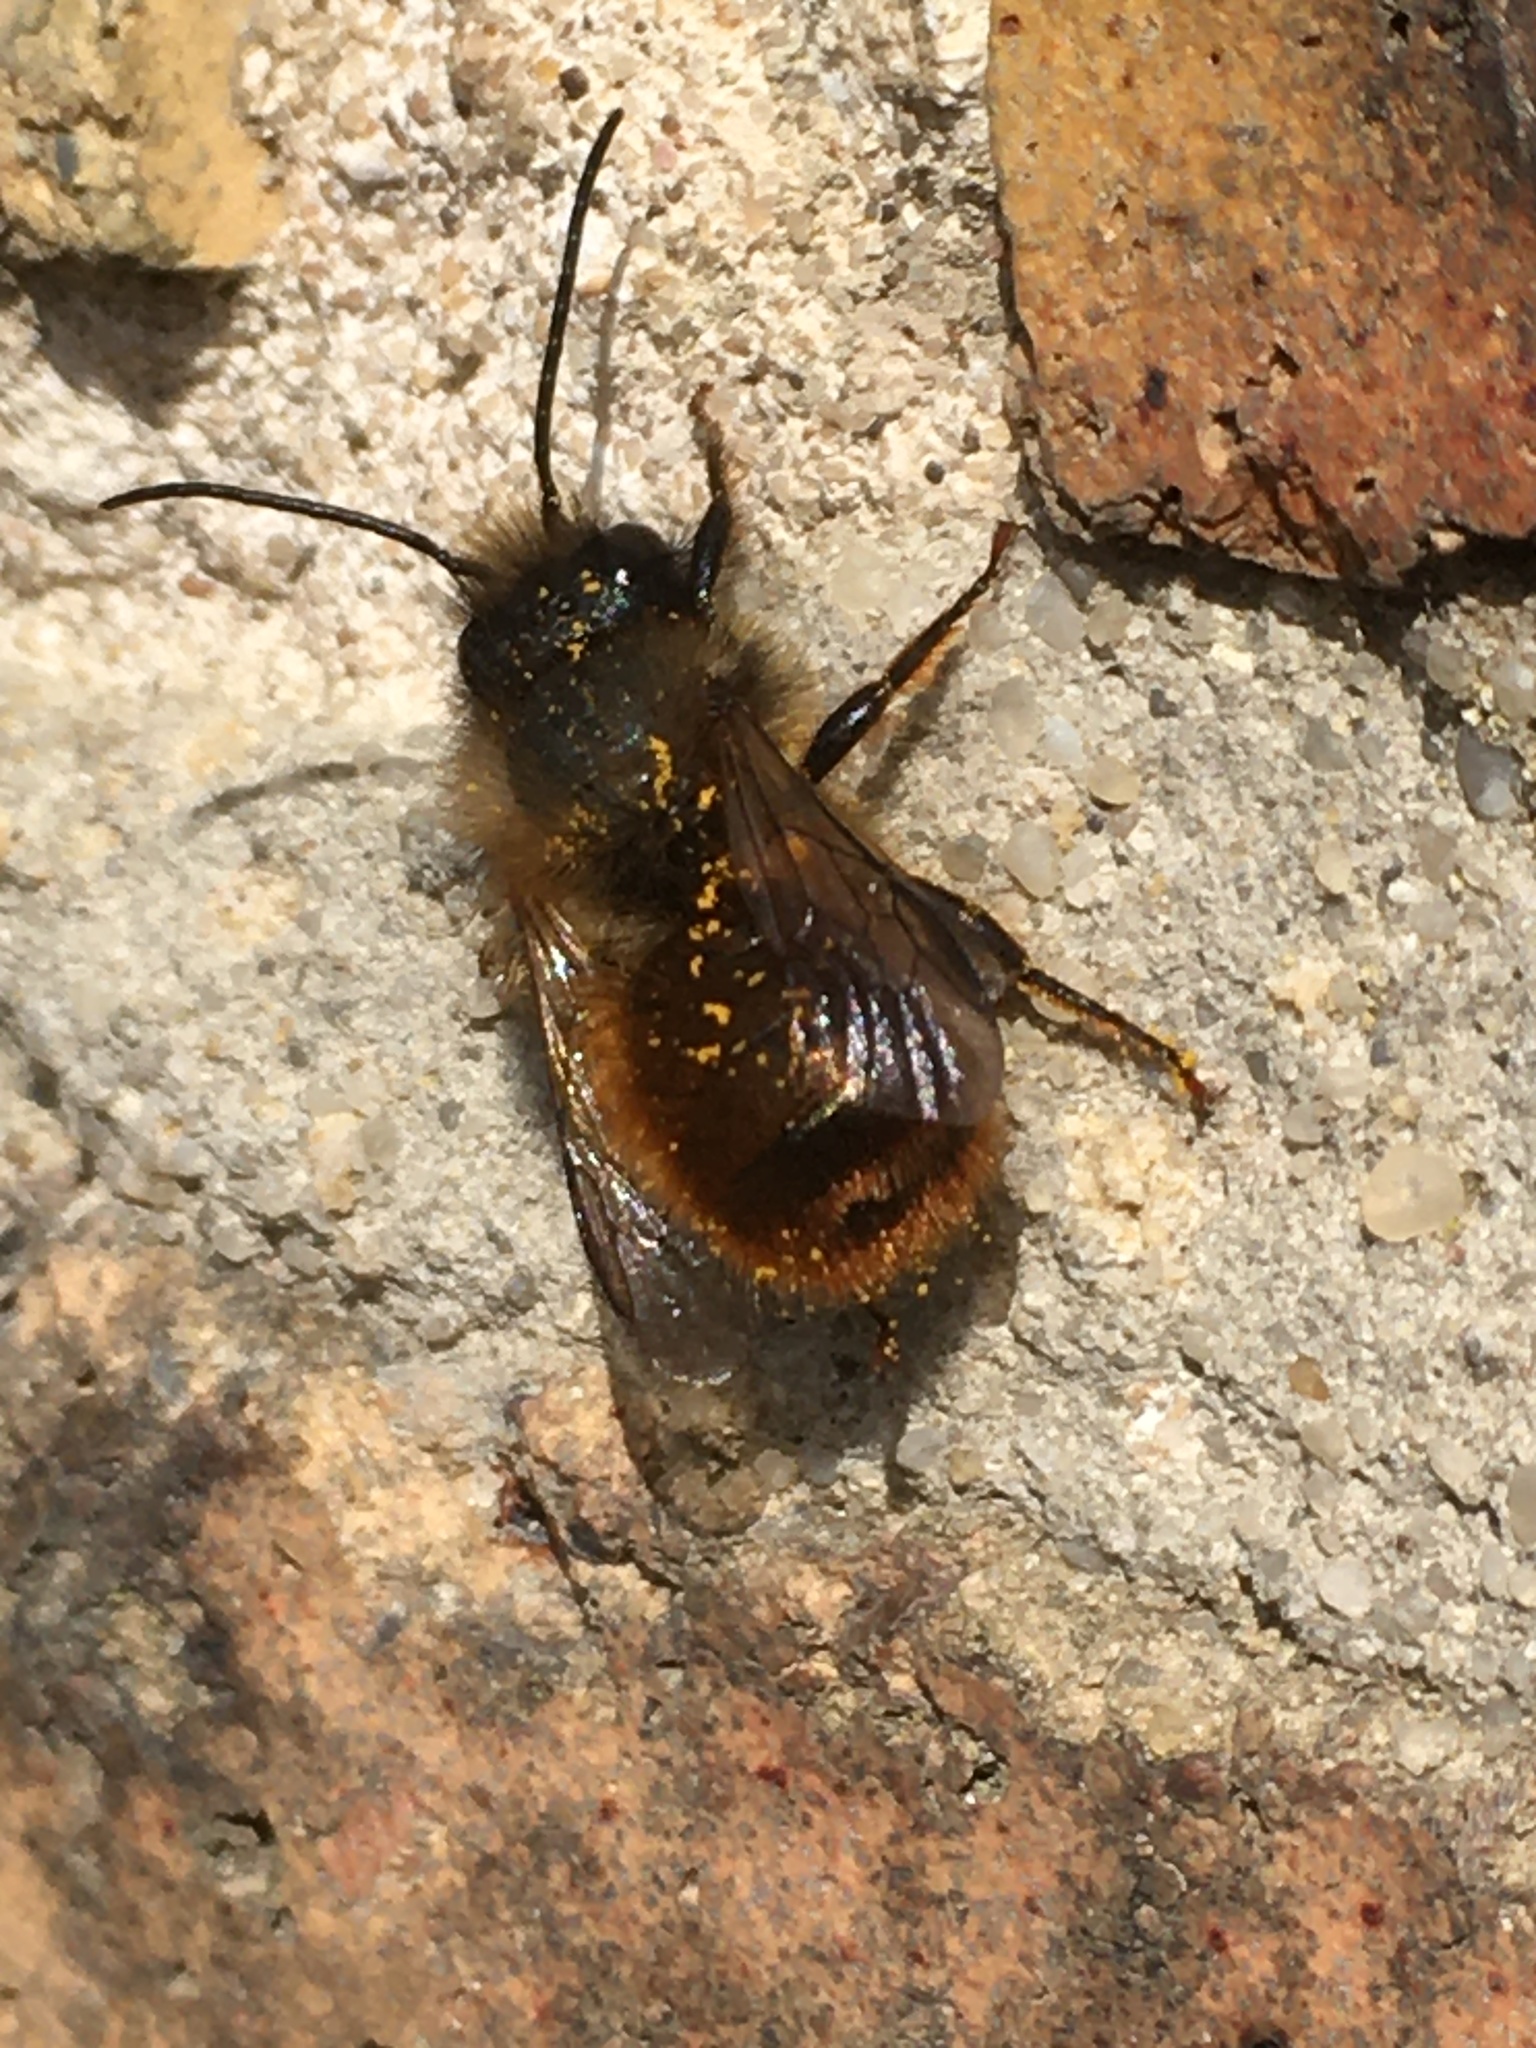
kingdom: Animalia
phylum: Arthropoda
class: Insecta
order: Hymenoptera
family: Megachilidae
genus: Osmia
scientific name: Osmia bicornis
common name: Red mason bee
